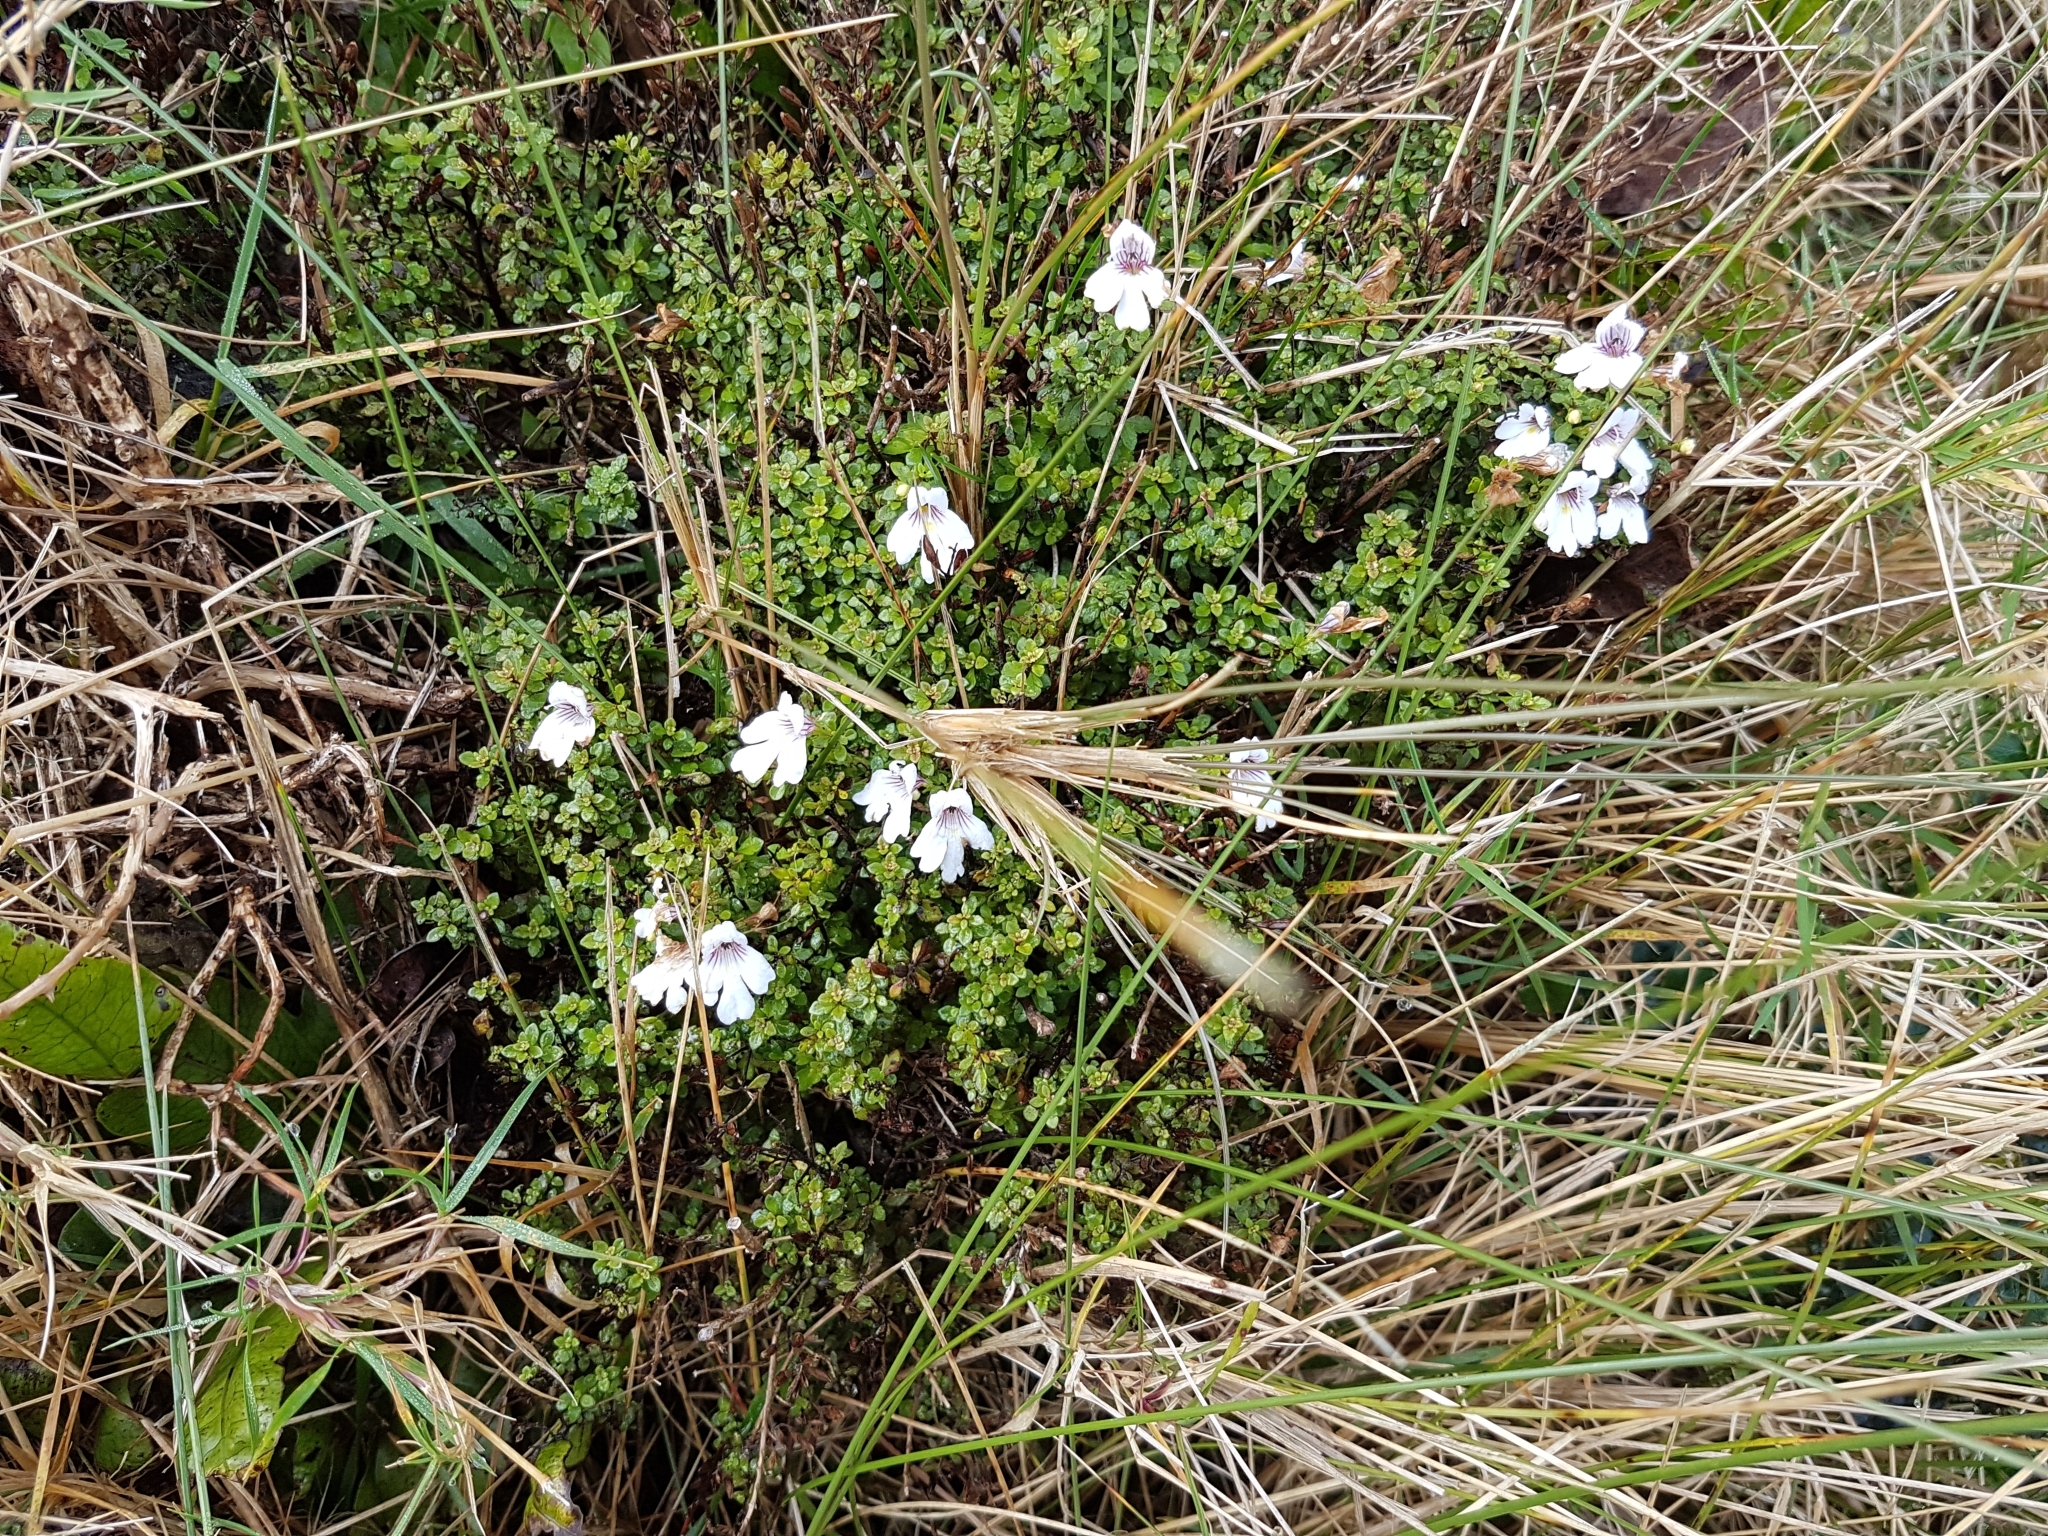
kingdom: Plantae
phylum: Tracheophyta
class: Magnoliopsida
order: Lamiales
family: Orobanchaceae
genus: Euphrasia
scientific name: Euphrasia cuneata
